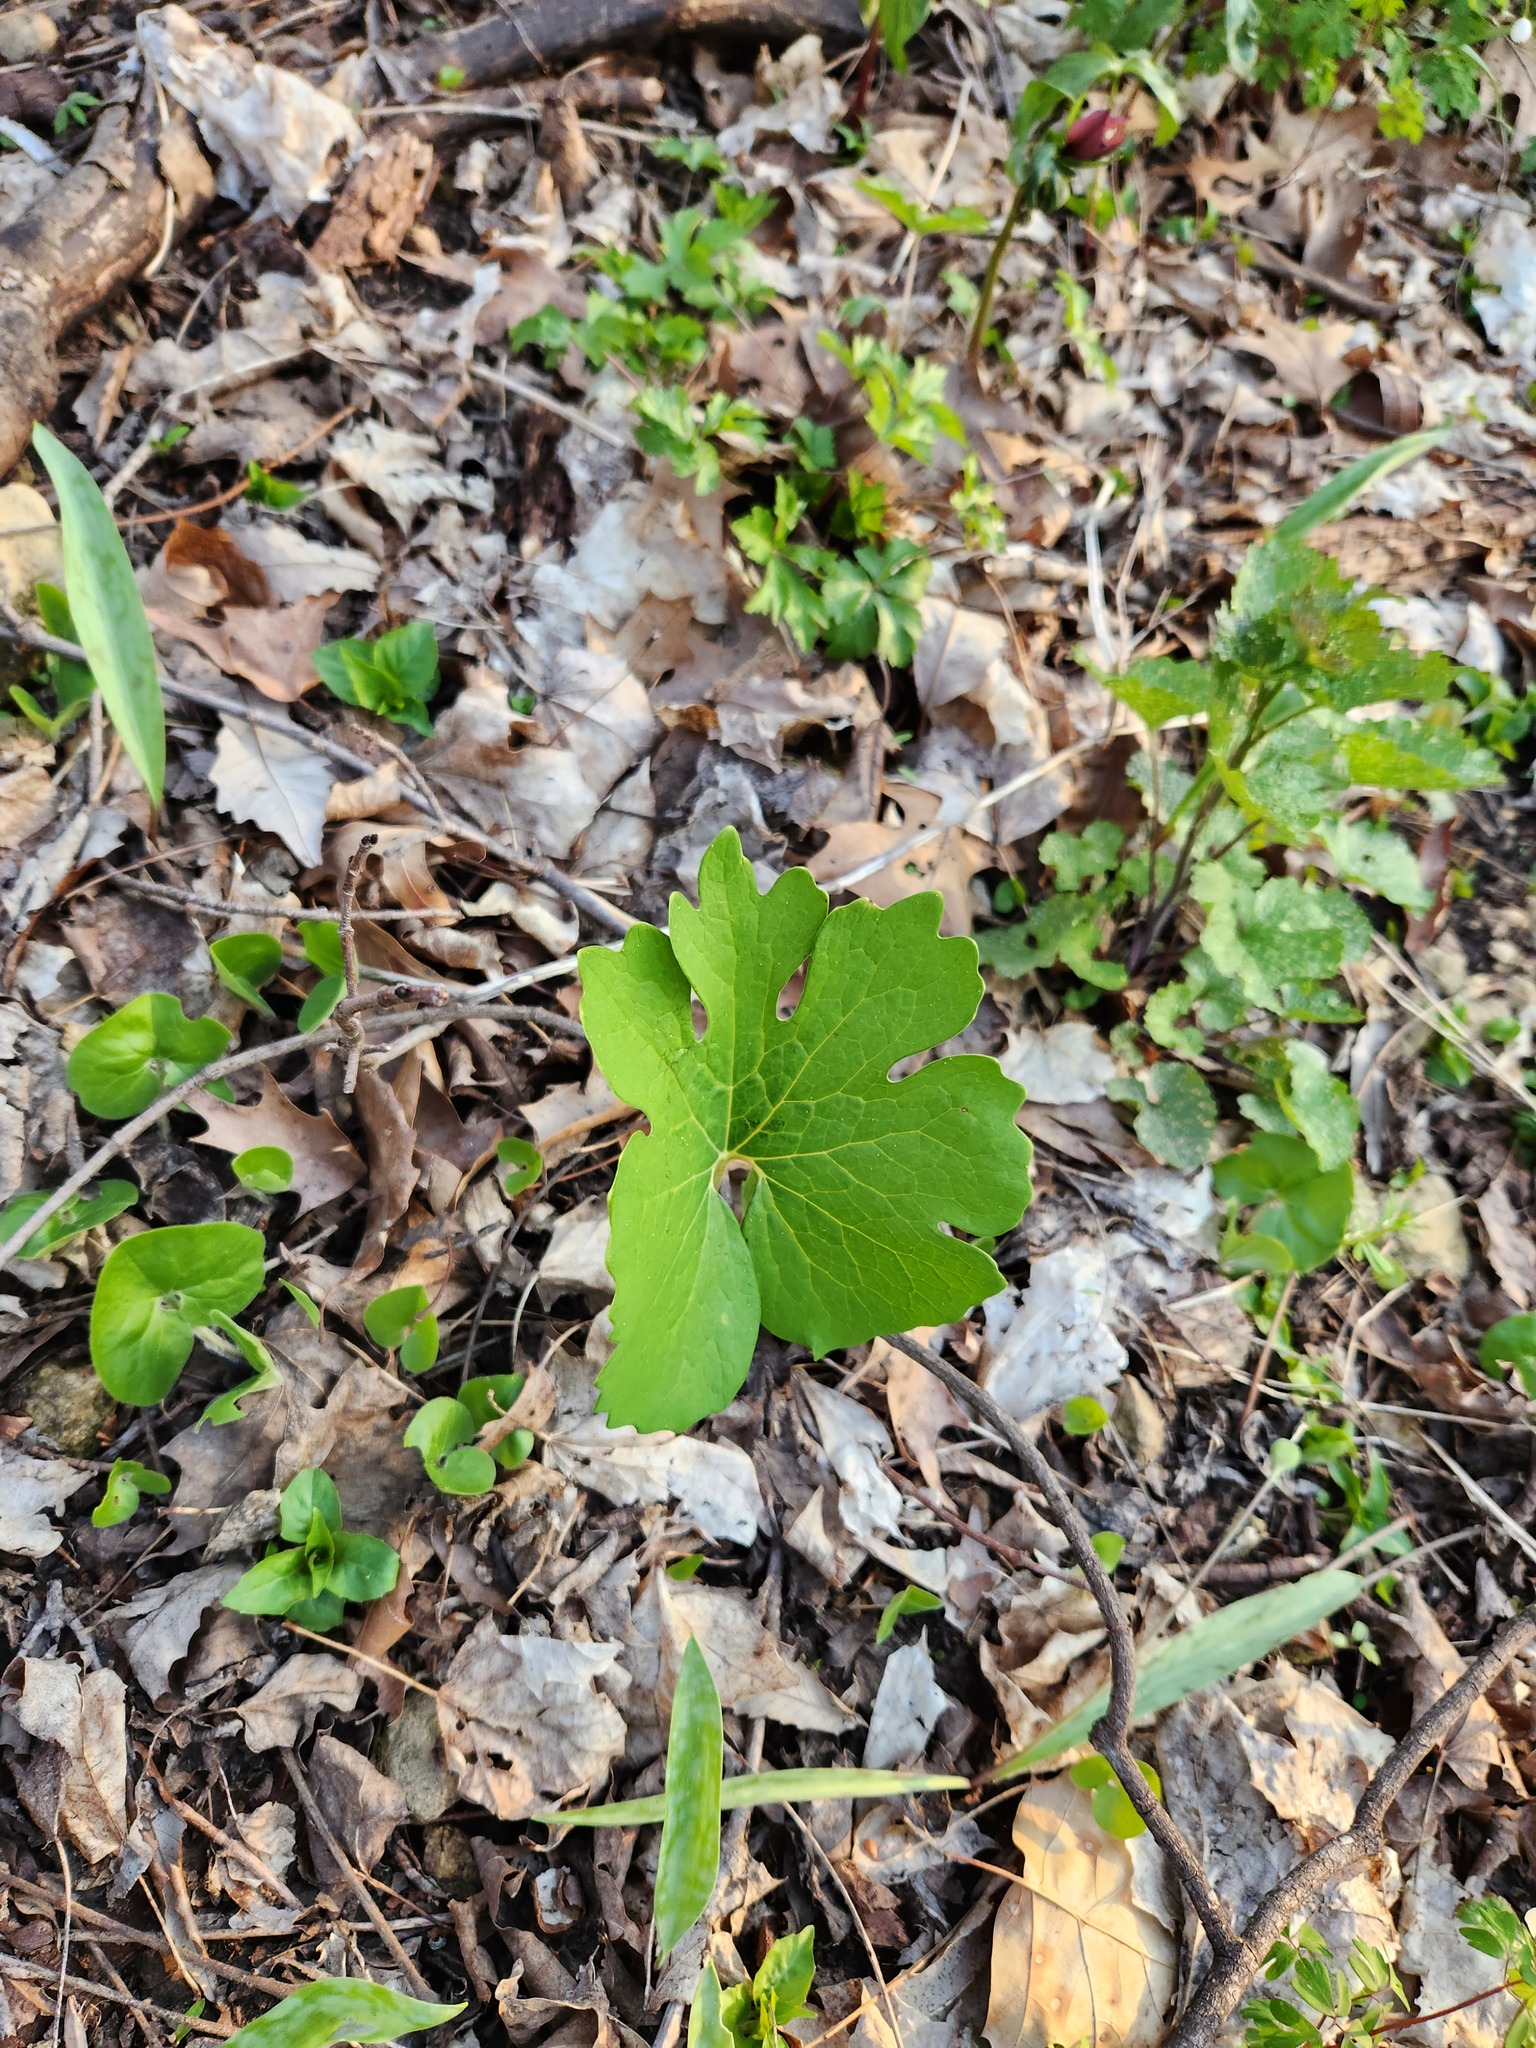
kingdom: Plantae
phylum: Tracheophyta
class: Magnoliopsida
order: Ranunculales
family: Papaveraceae
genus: Sanguinaria
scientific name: Sanguinaria canadensis
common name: Bloodroot
